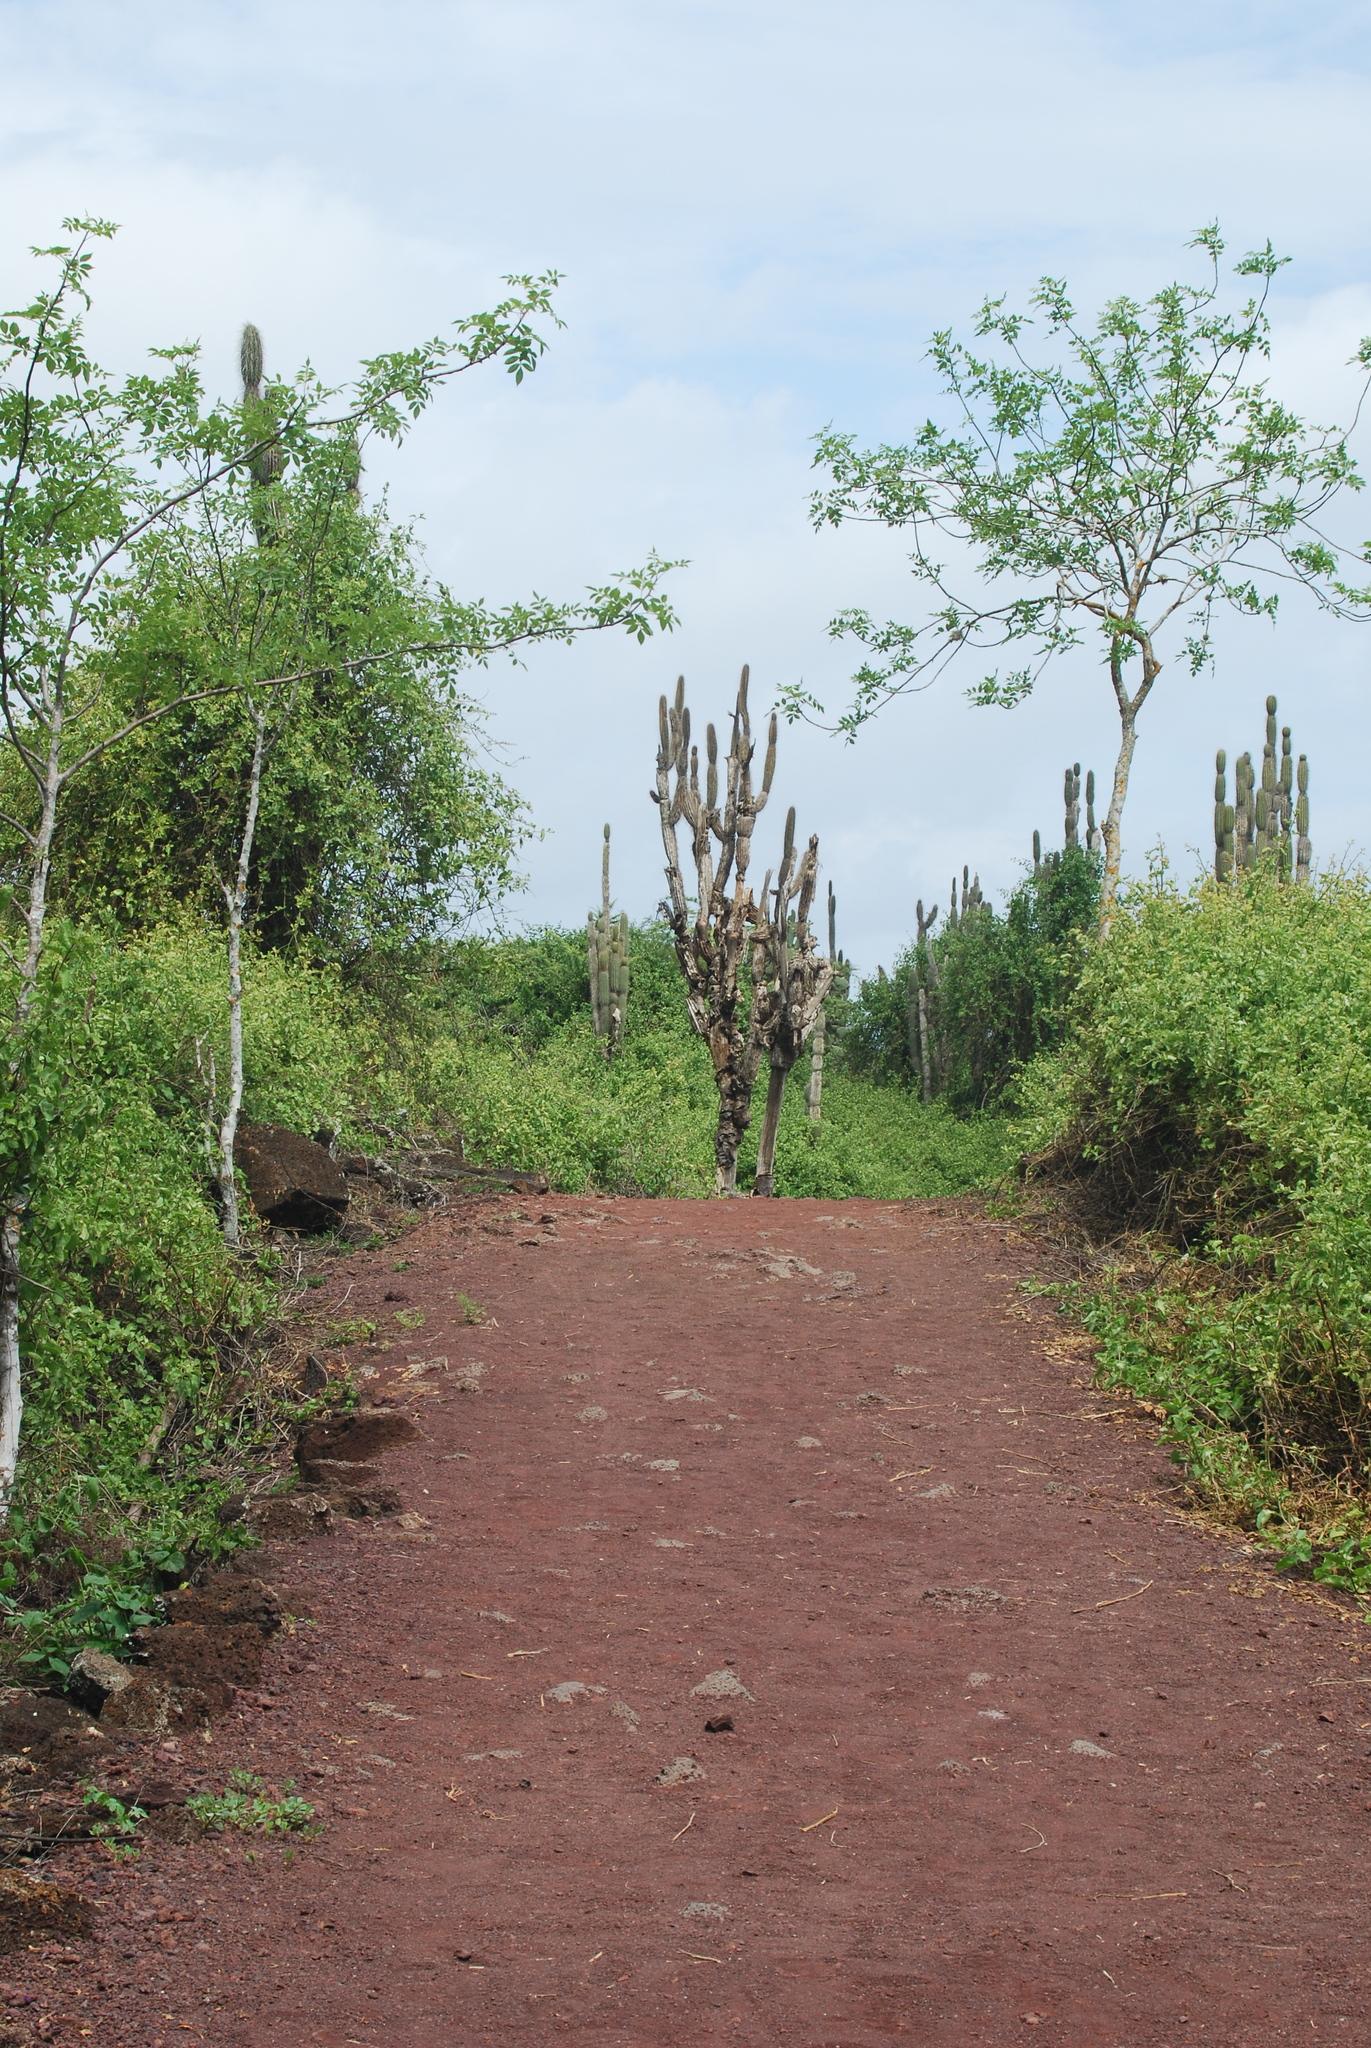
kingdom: Plantae
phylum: Tracheophyta
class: Magnoliopsida
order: Caryophyllales
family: Cactaceae
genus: Jasminocereus
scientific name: Jasminocereus thouarsii
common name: Candelabra cactus
